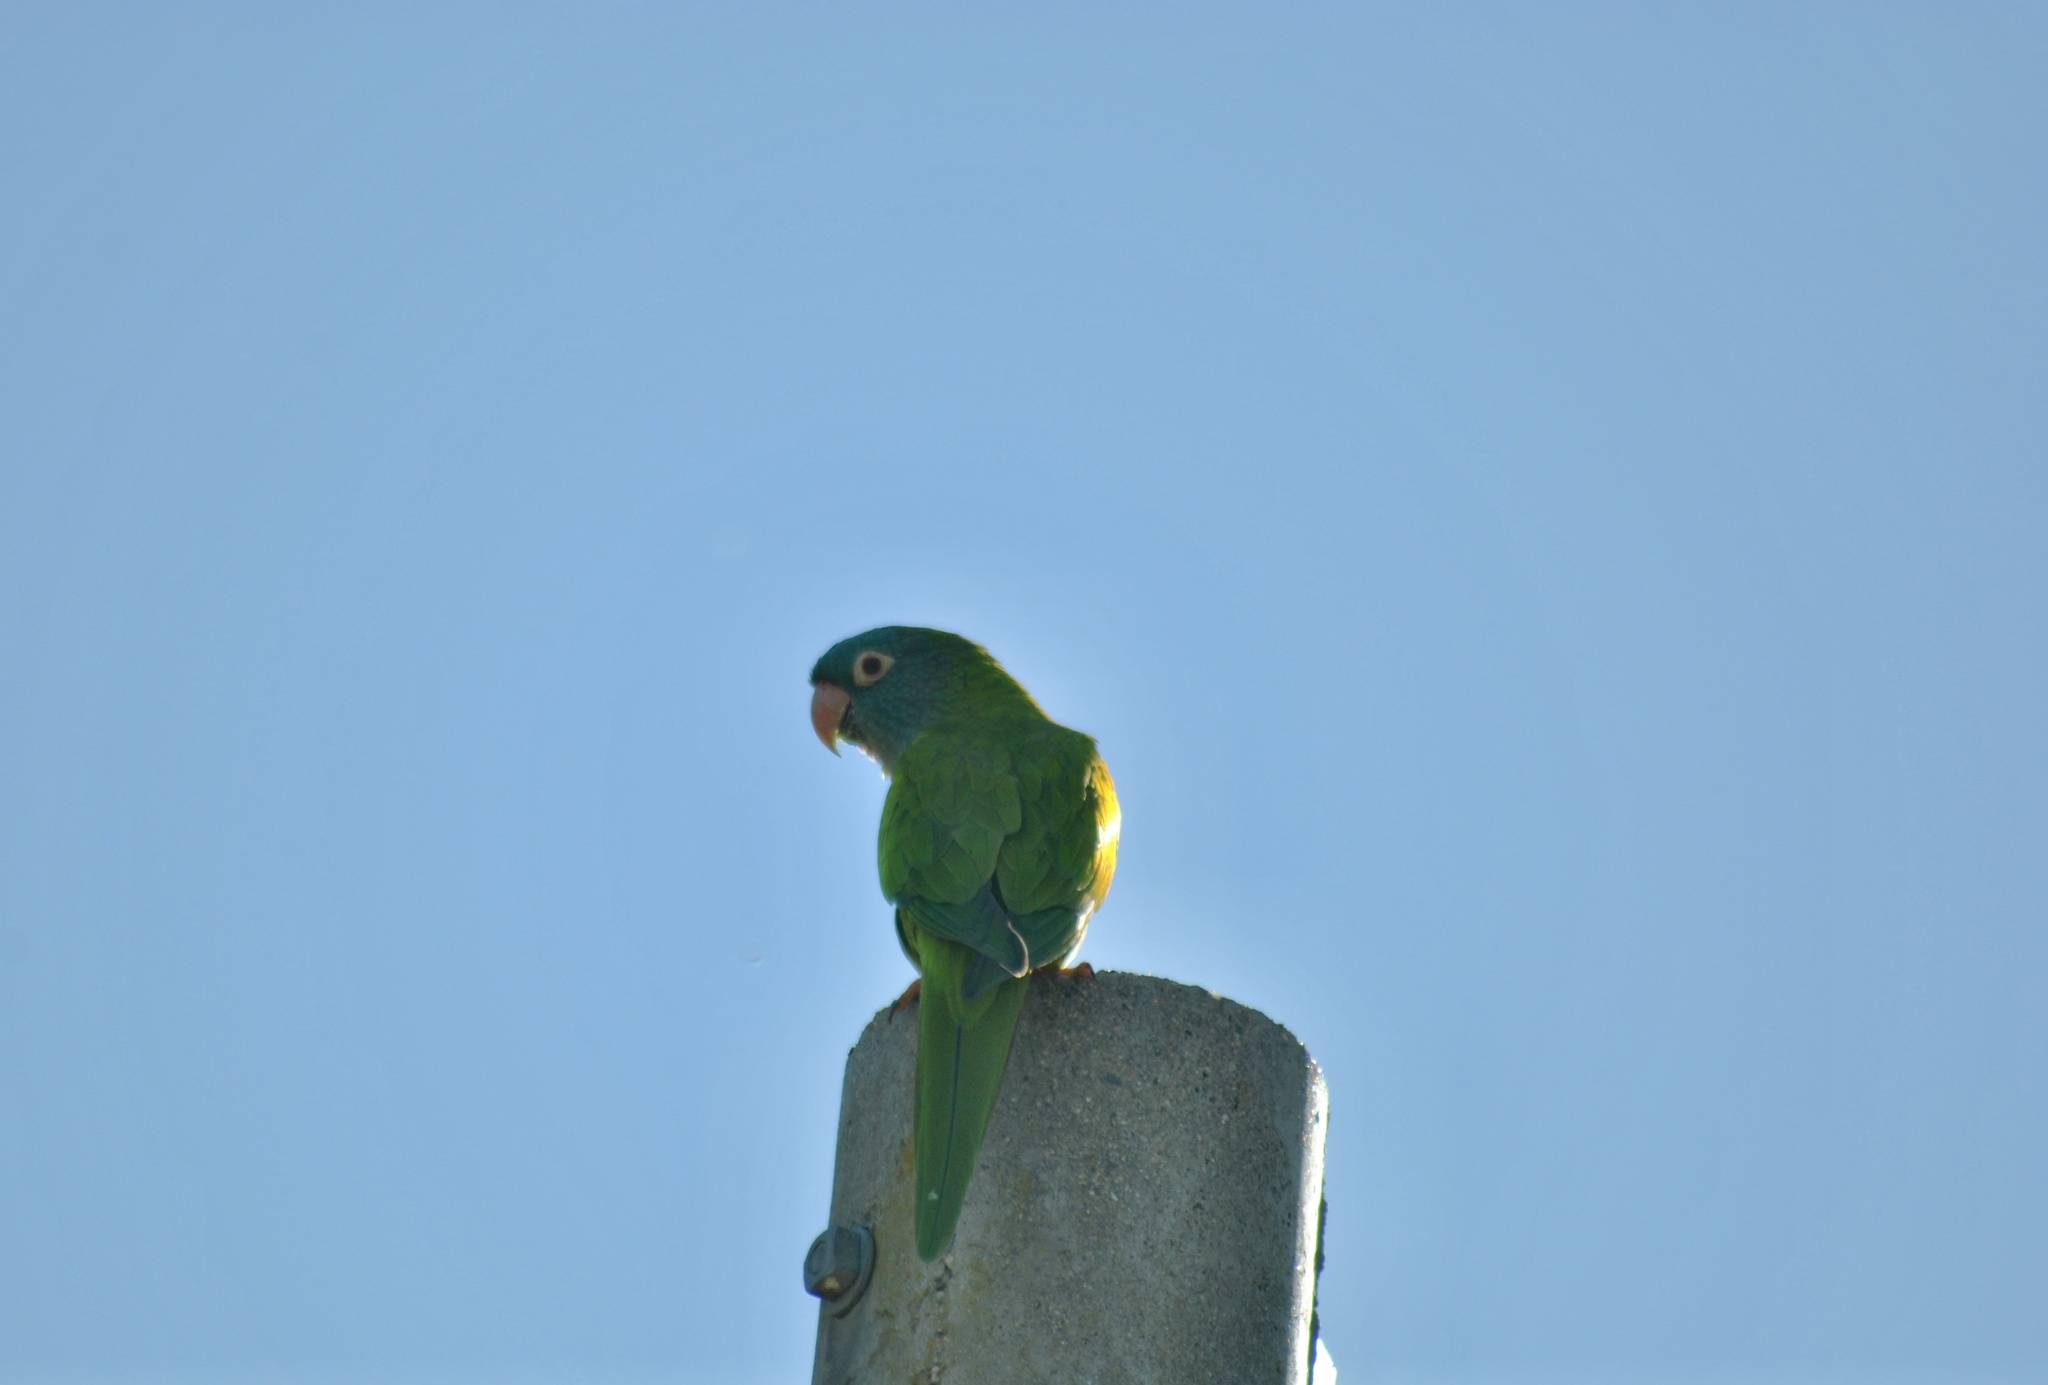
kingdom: Animalia
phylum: Chordata
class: Aves
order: Psittaciformes
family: Psittacidae
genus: Aratinga
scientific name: Aratinga acuticaudata
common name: Blue-crowned parakeet
